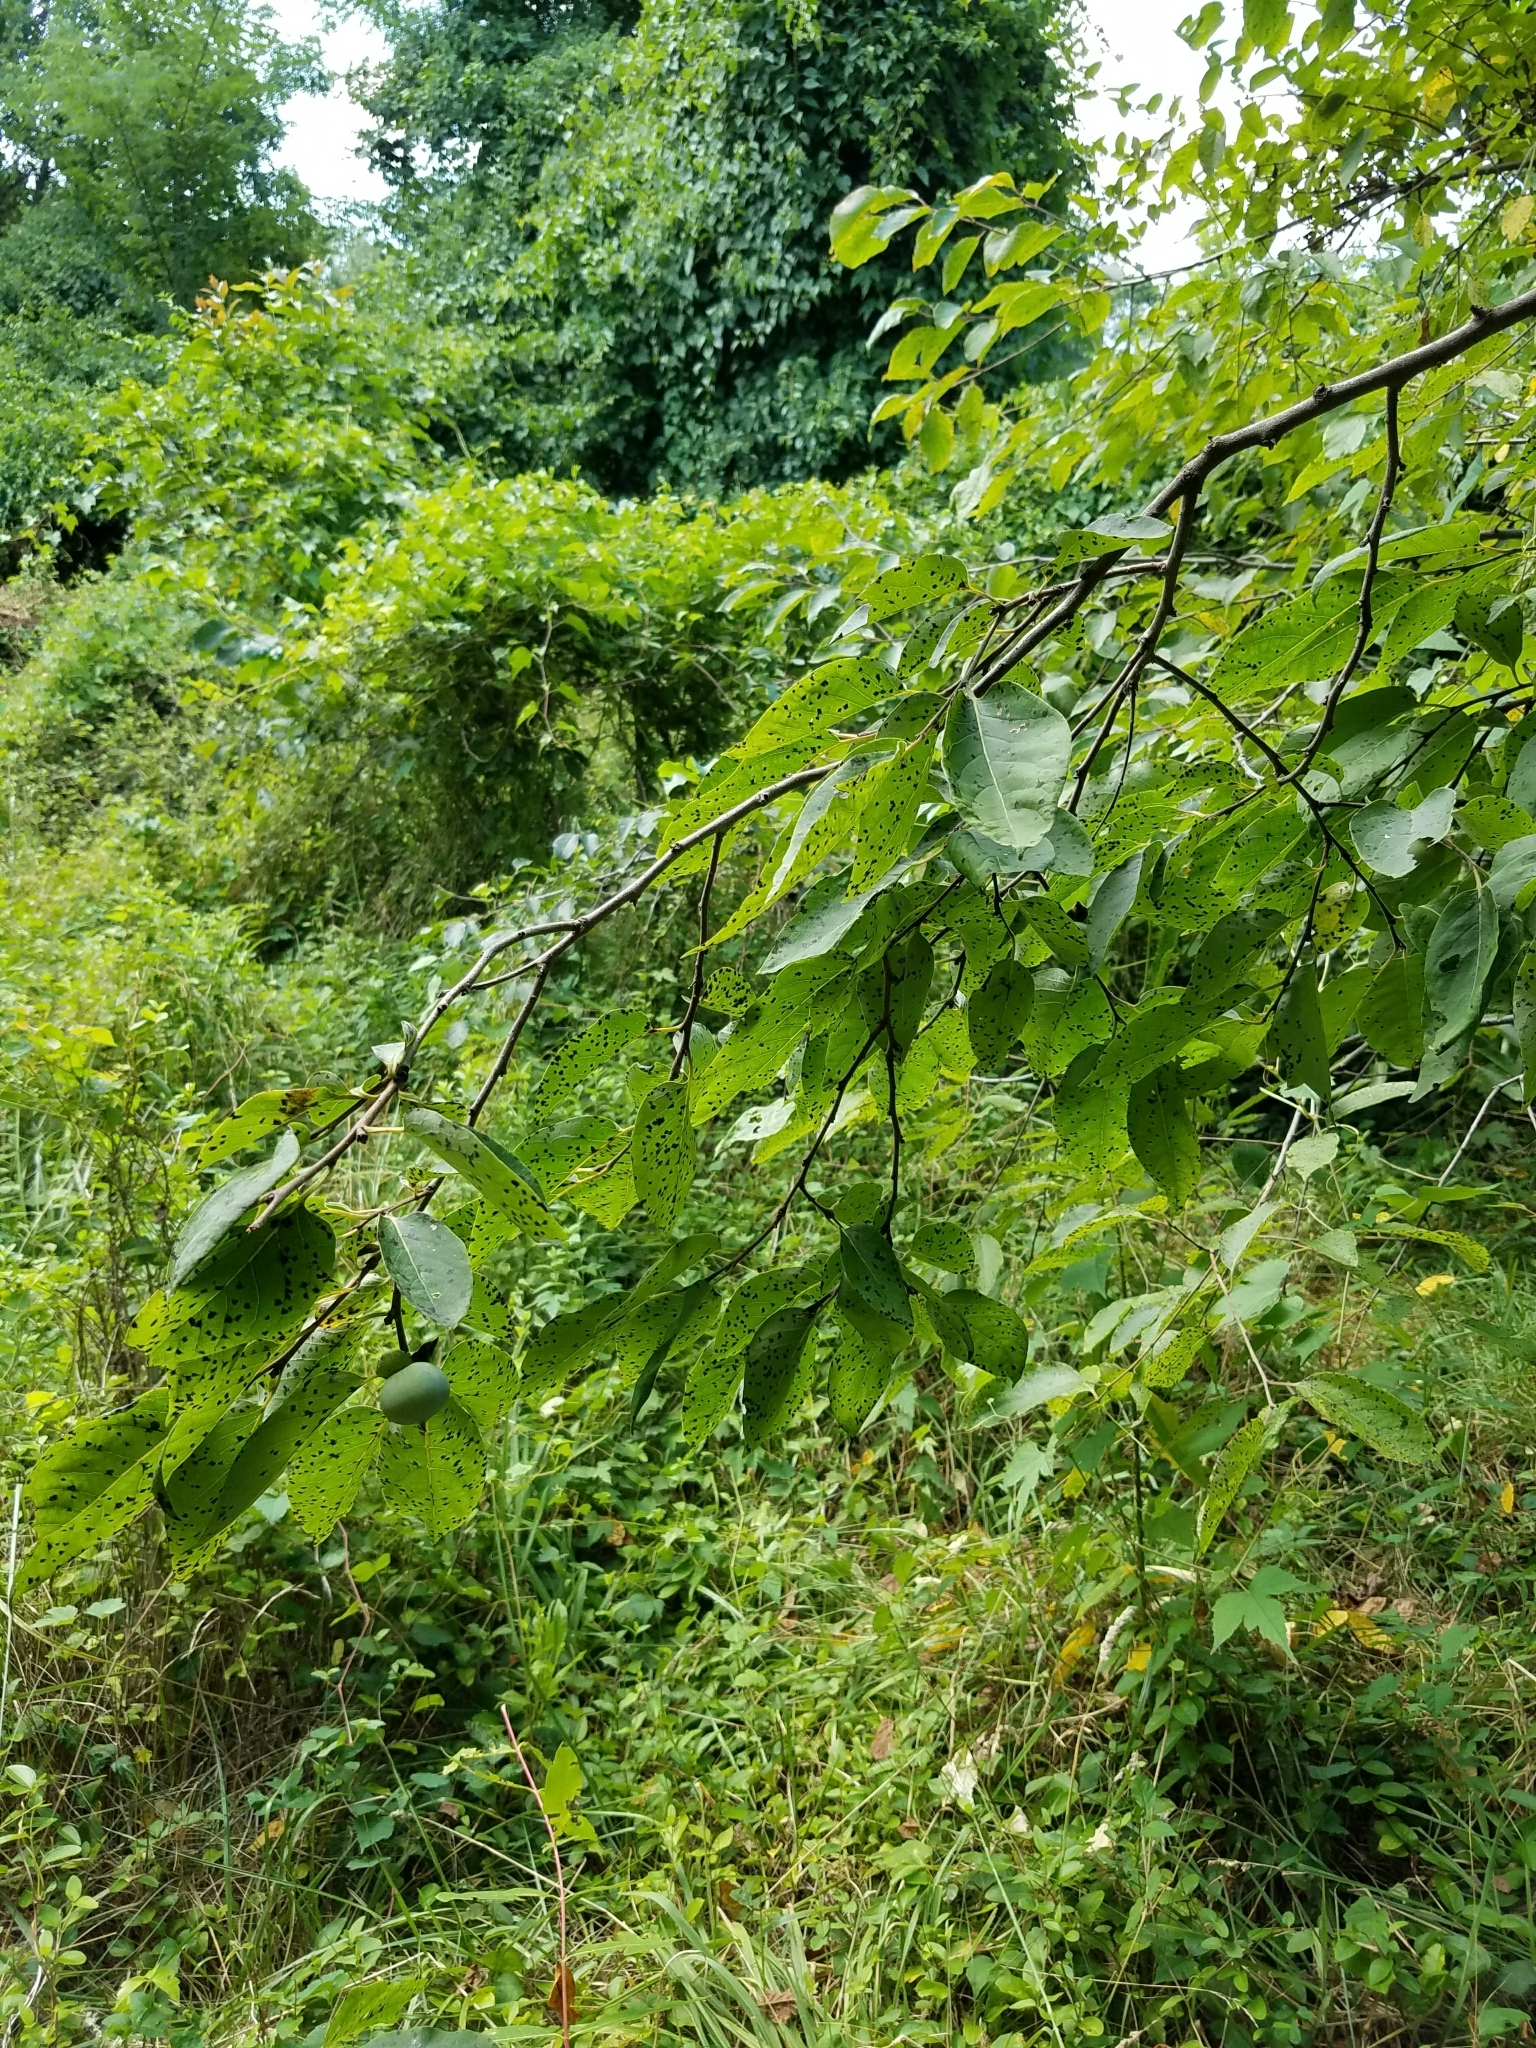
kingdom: Plantae
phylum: Tracheophyta
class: Magnoliopsida
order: Ericales
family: Ebenaceae
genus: Diospyros
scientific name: Diospyros virginiana
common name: Persimmon
